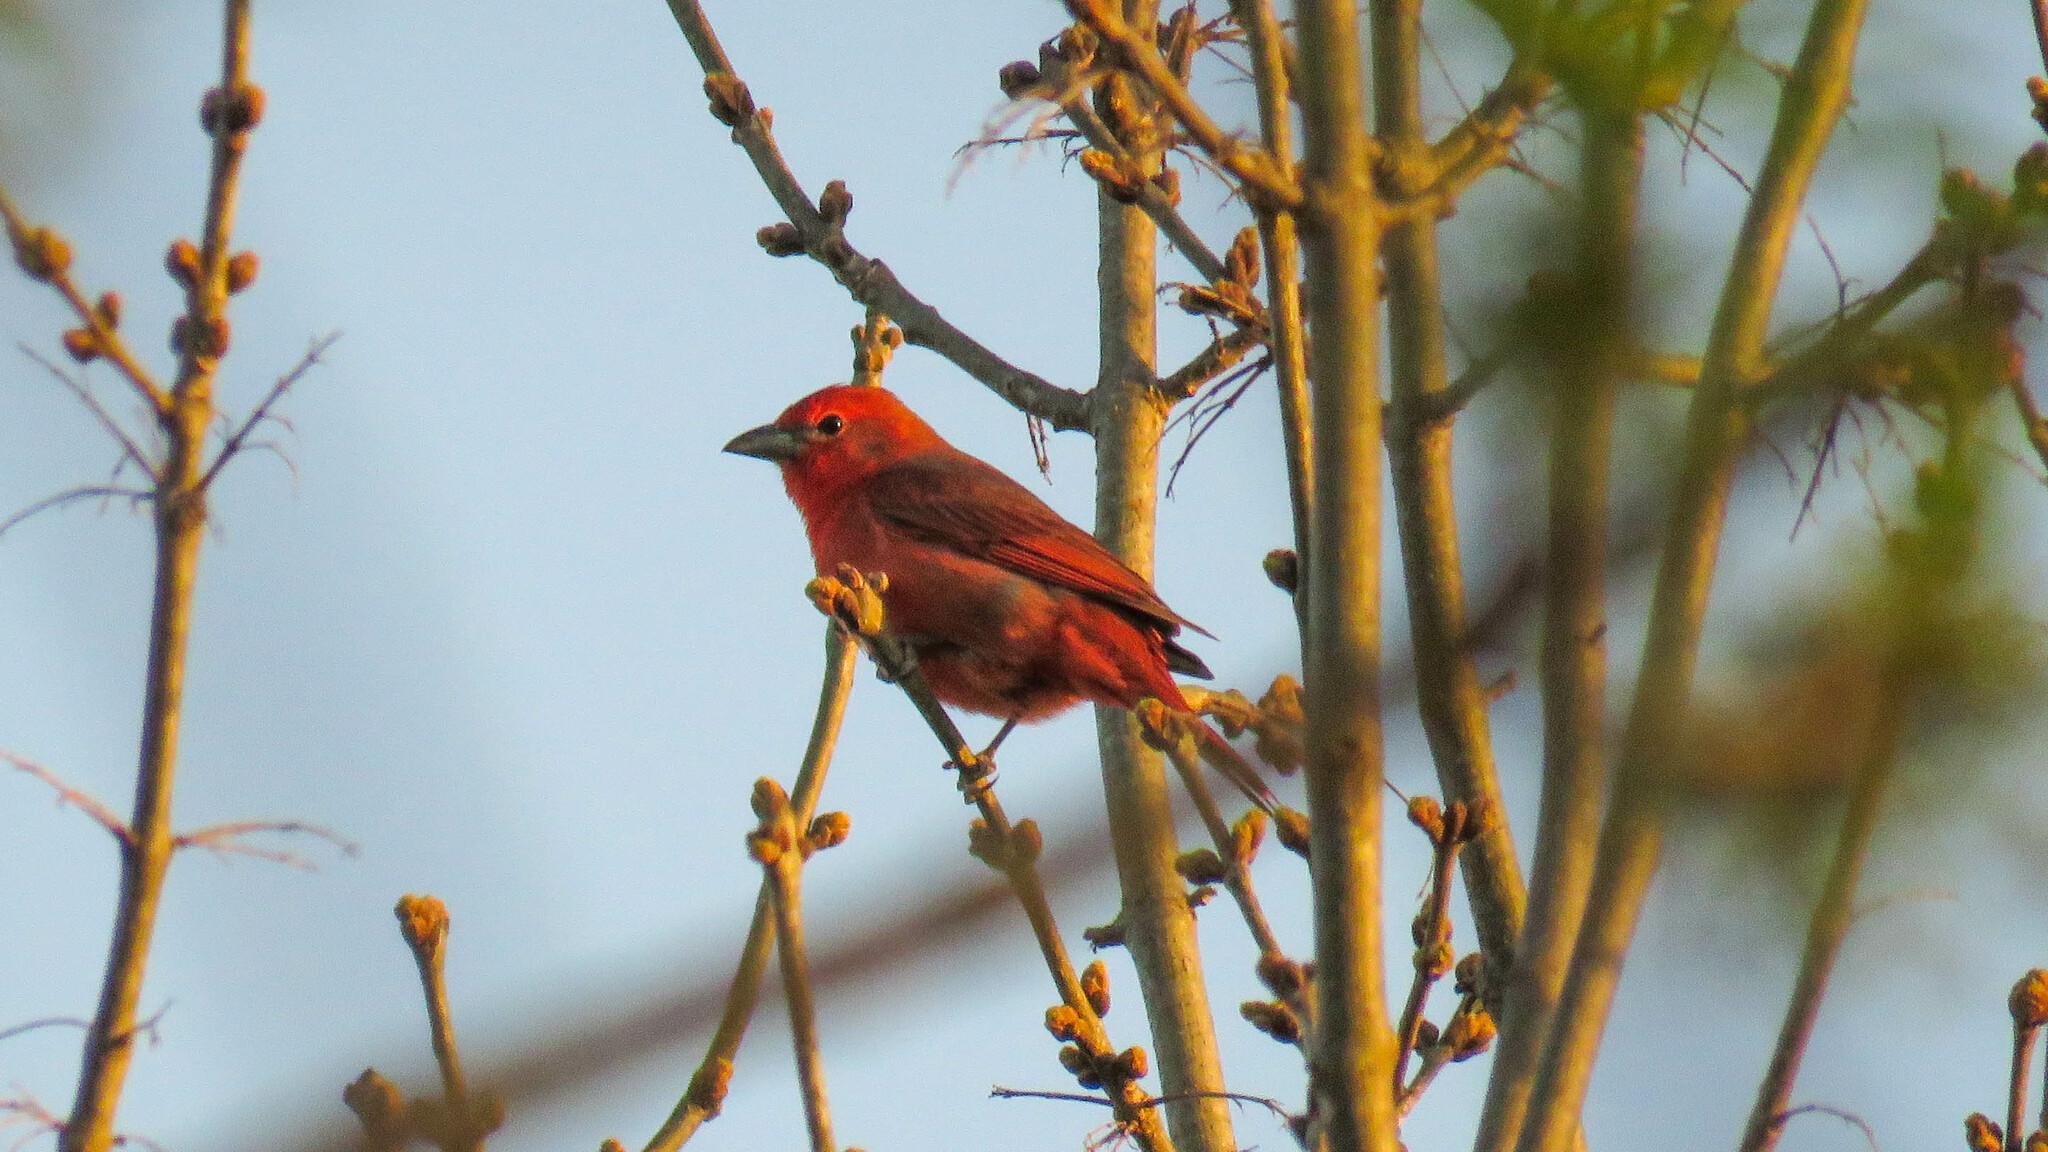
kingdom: Animalia
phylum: Chordata
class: Aves
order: Passeriformes
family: Cardinalidae
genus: Piranga
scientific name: Piranga flava
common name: Red tanager
